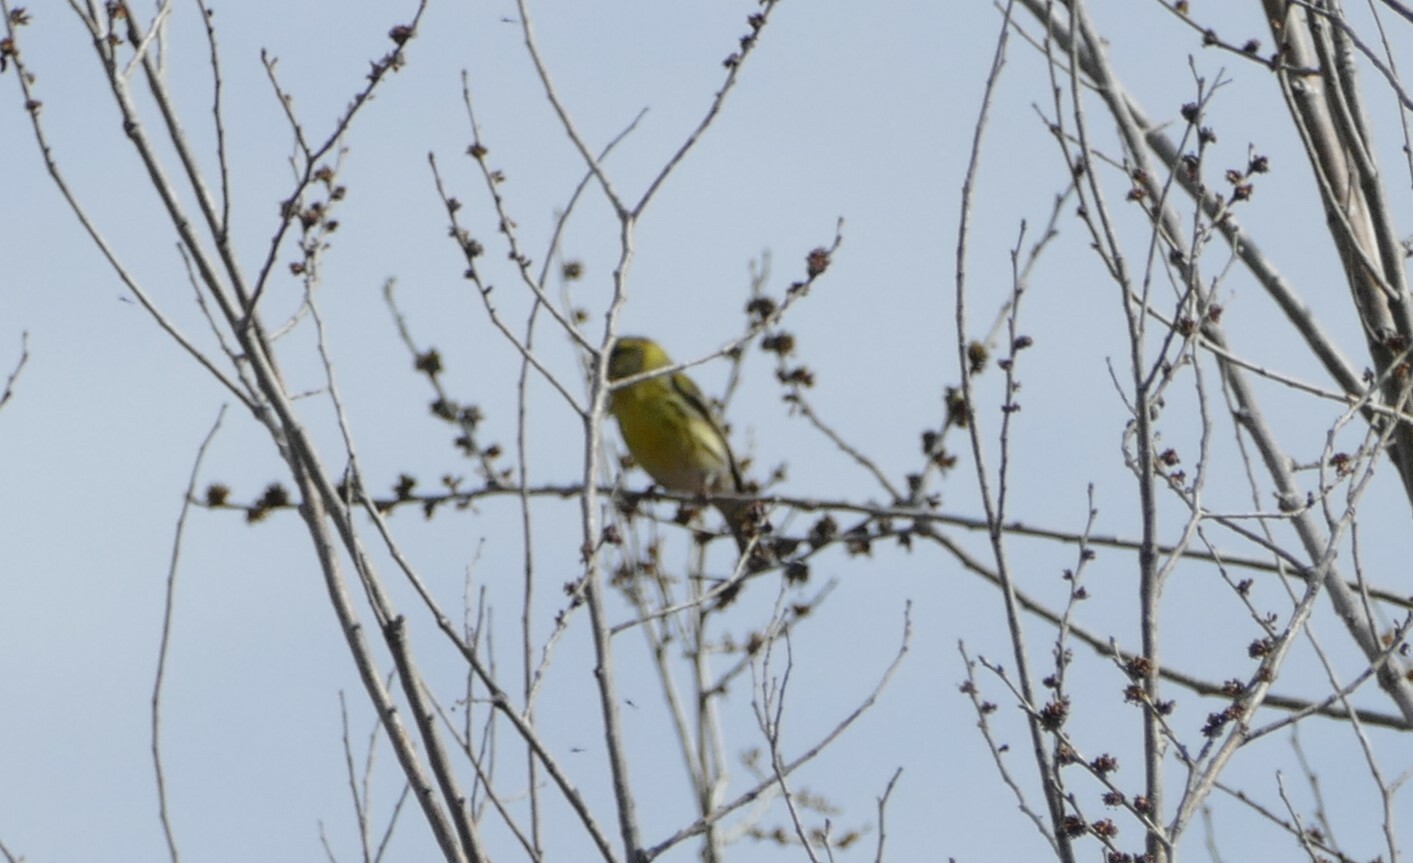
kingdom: Animalia
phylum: Chordata
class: Aves
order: Passeriformes
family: Fringillidae
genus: Serinus
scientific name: Serinus serinus
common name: European serin
